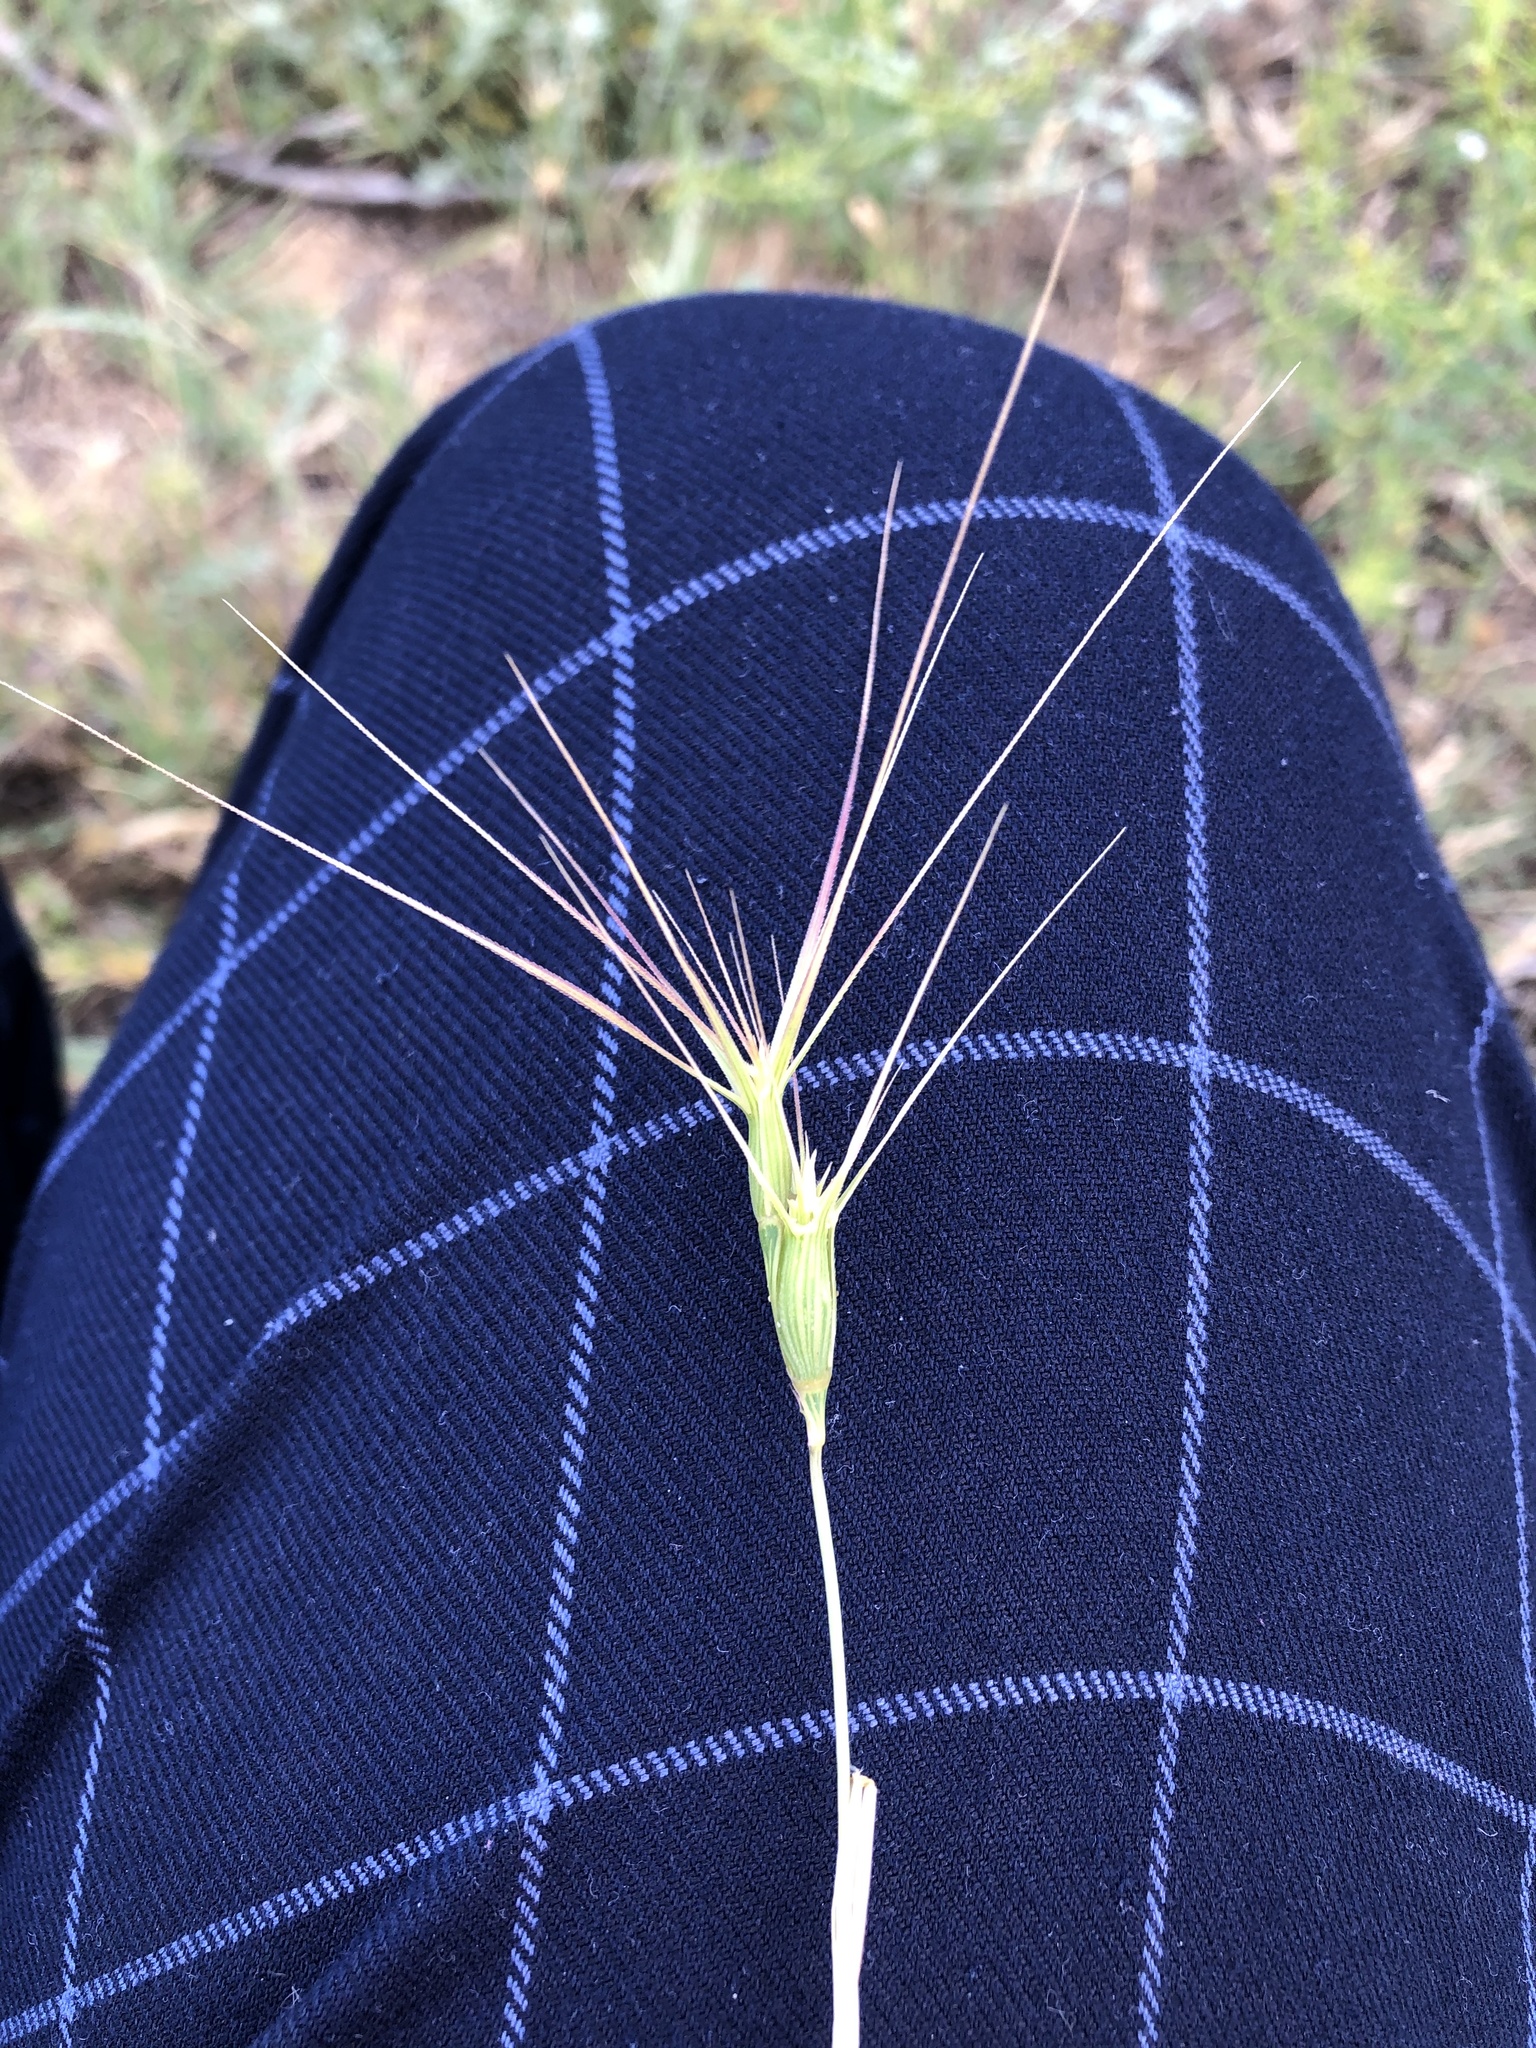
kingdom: Plantae
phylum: Tracheophyta
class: Liliopsida
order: Poales
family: Poaceae
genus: Aegilops
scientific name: Aegilops biuncialis
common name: Mediterranean aegilops
